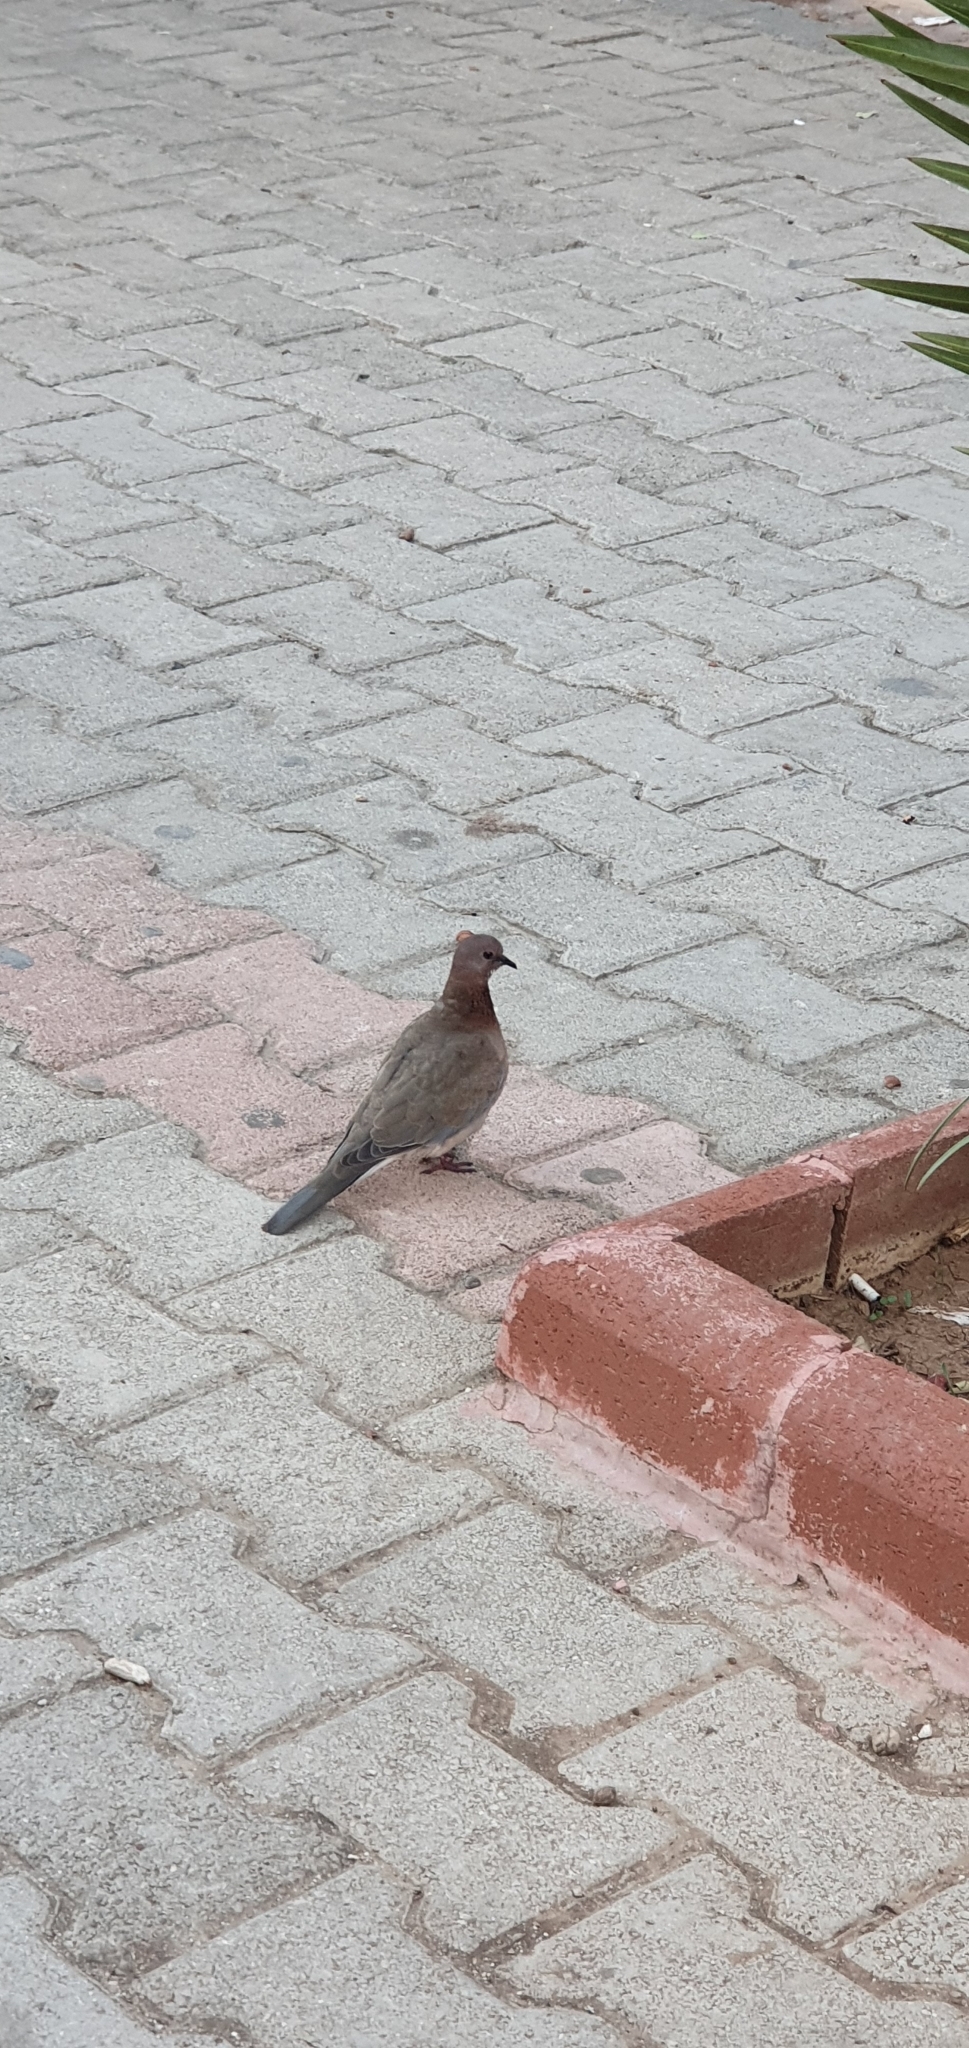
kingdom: Animalia
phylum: Chordata
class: Aves
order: Columbiformes
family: Columbidae
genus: Spilopelia
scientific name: Spilopelia senegalensis
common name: Laughing dove
